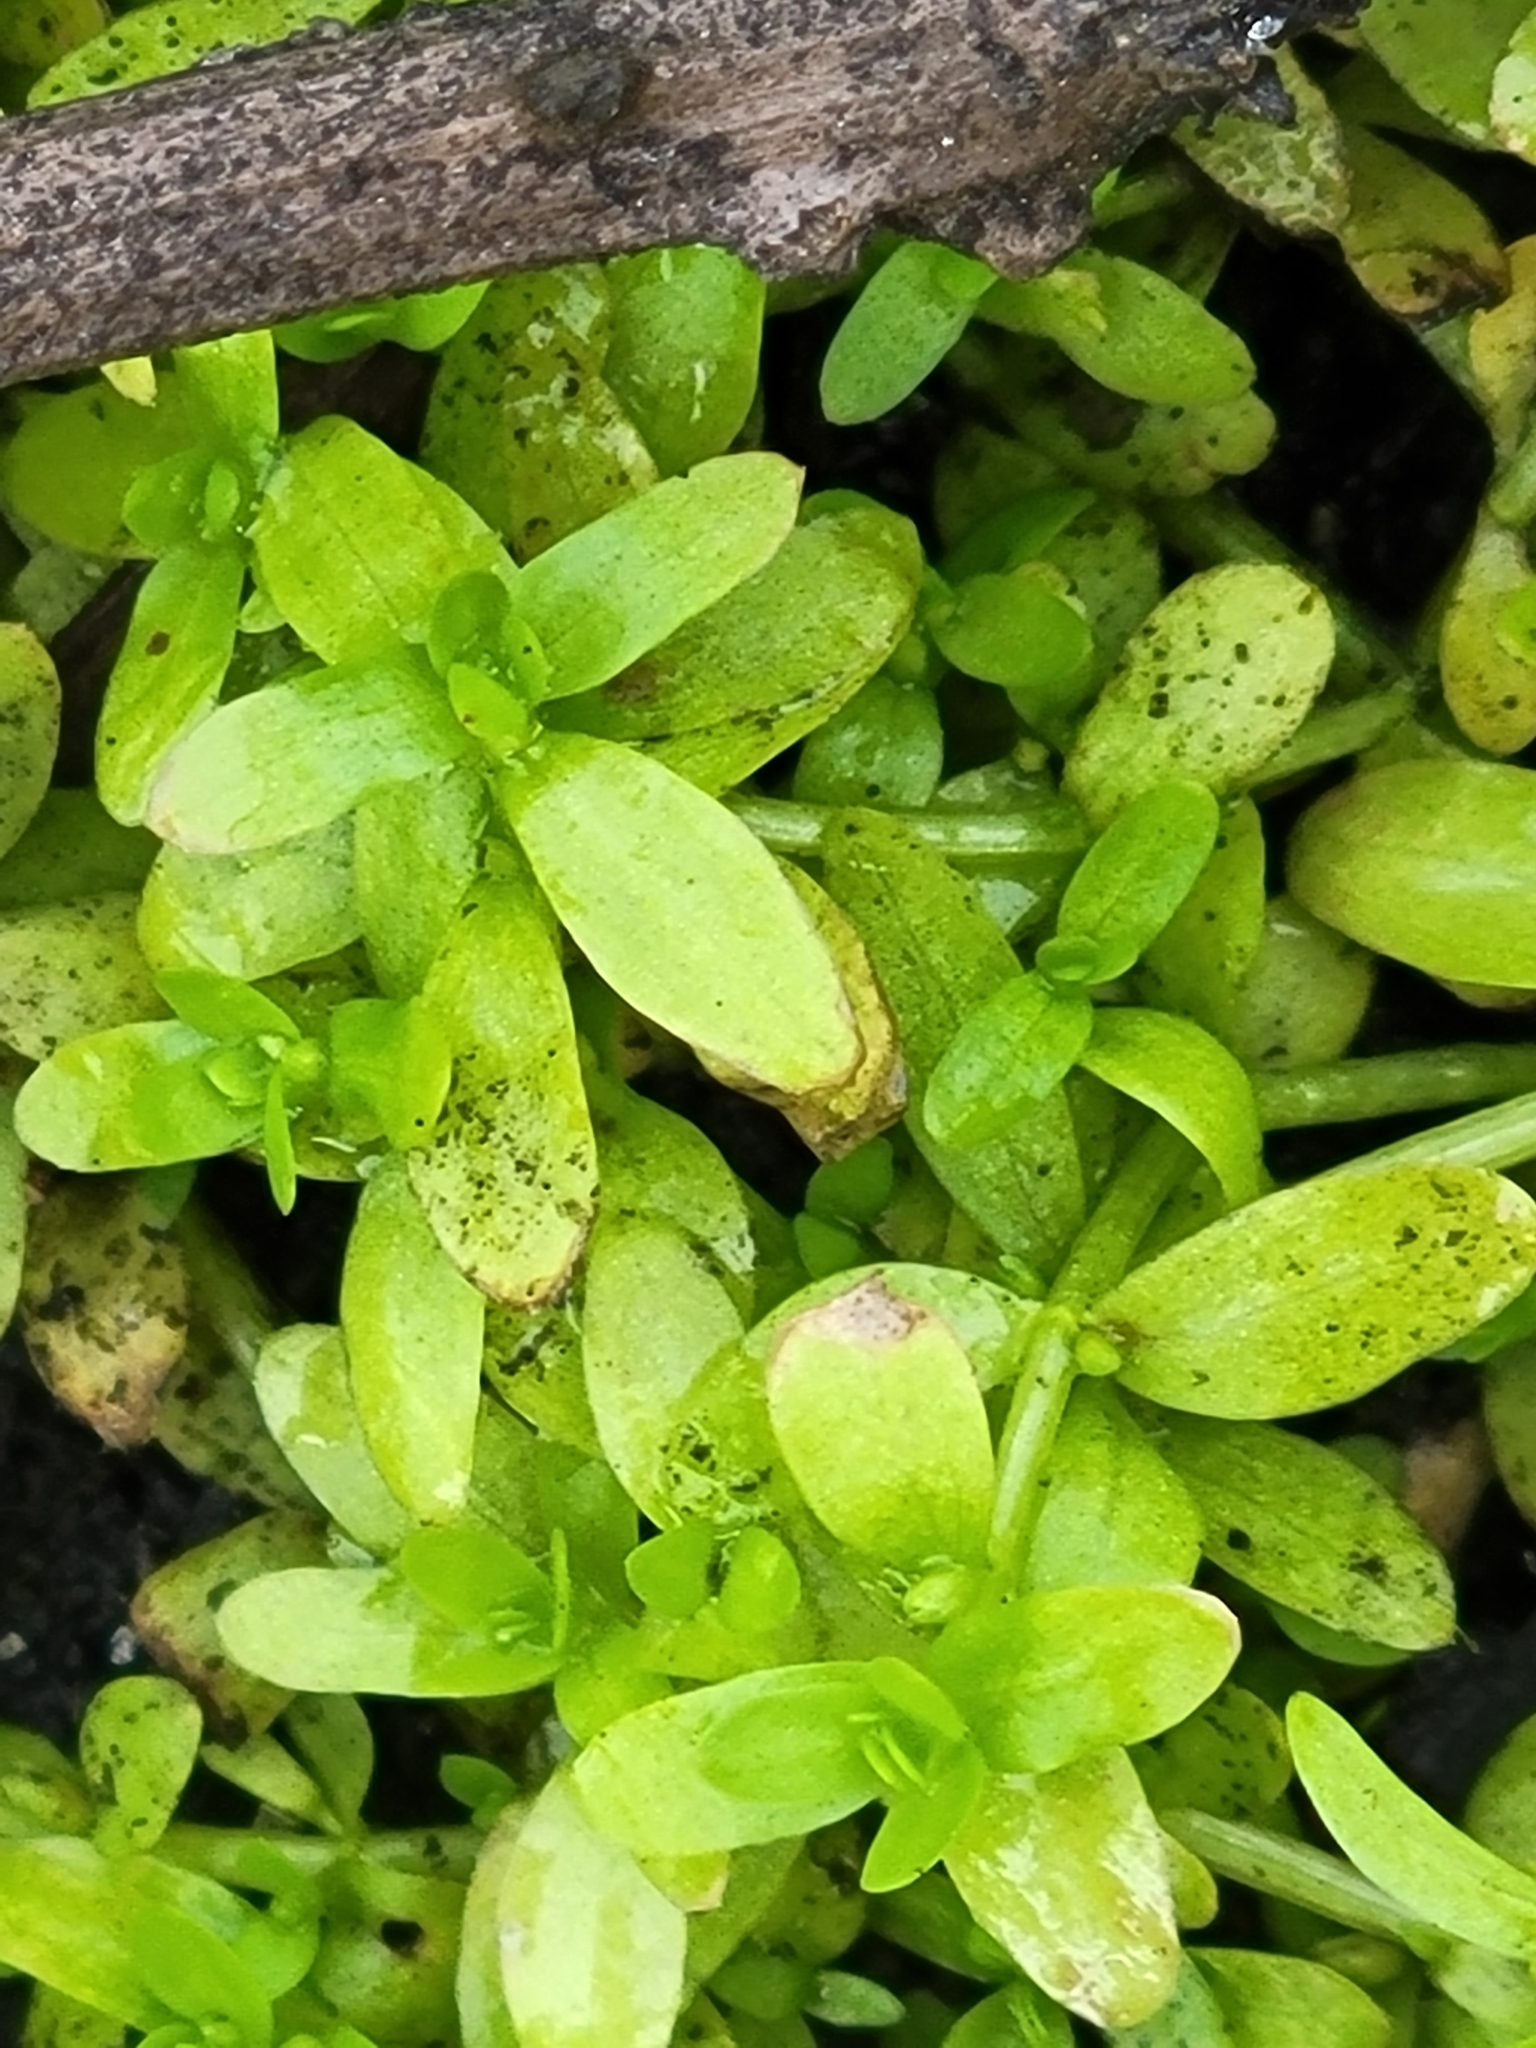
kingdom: Plantae
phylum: Tracheophyta
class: Magnoliopsida
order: Lamiales
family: Linderniaceae
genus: Micranthemum
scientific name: Micranthemum glomeratum
